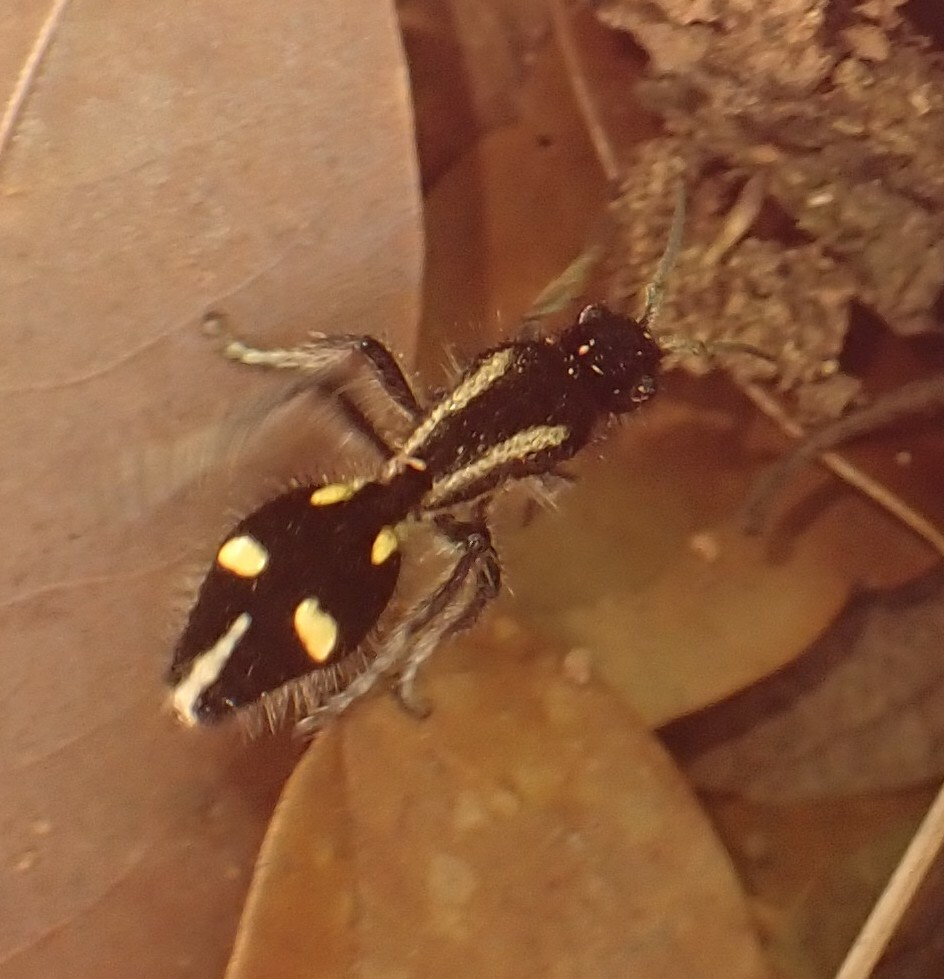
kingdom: Animalia
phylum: Arthropoda
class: Insecta
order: Hymenoptera
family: Mutillidae
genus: Traumatomutilla
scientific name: Traumatomutilla
